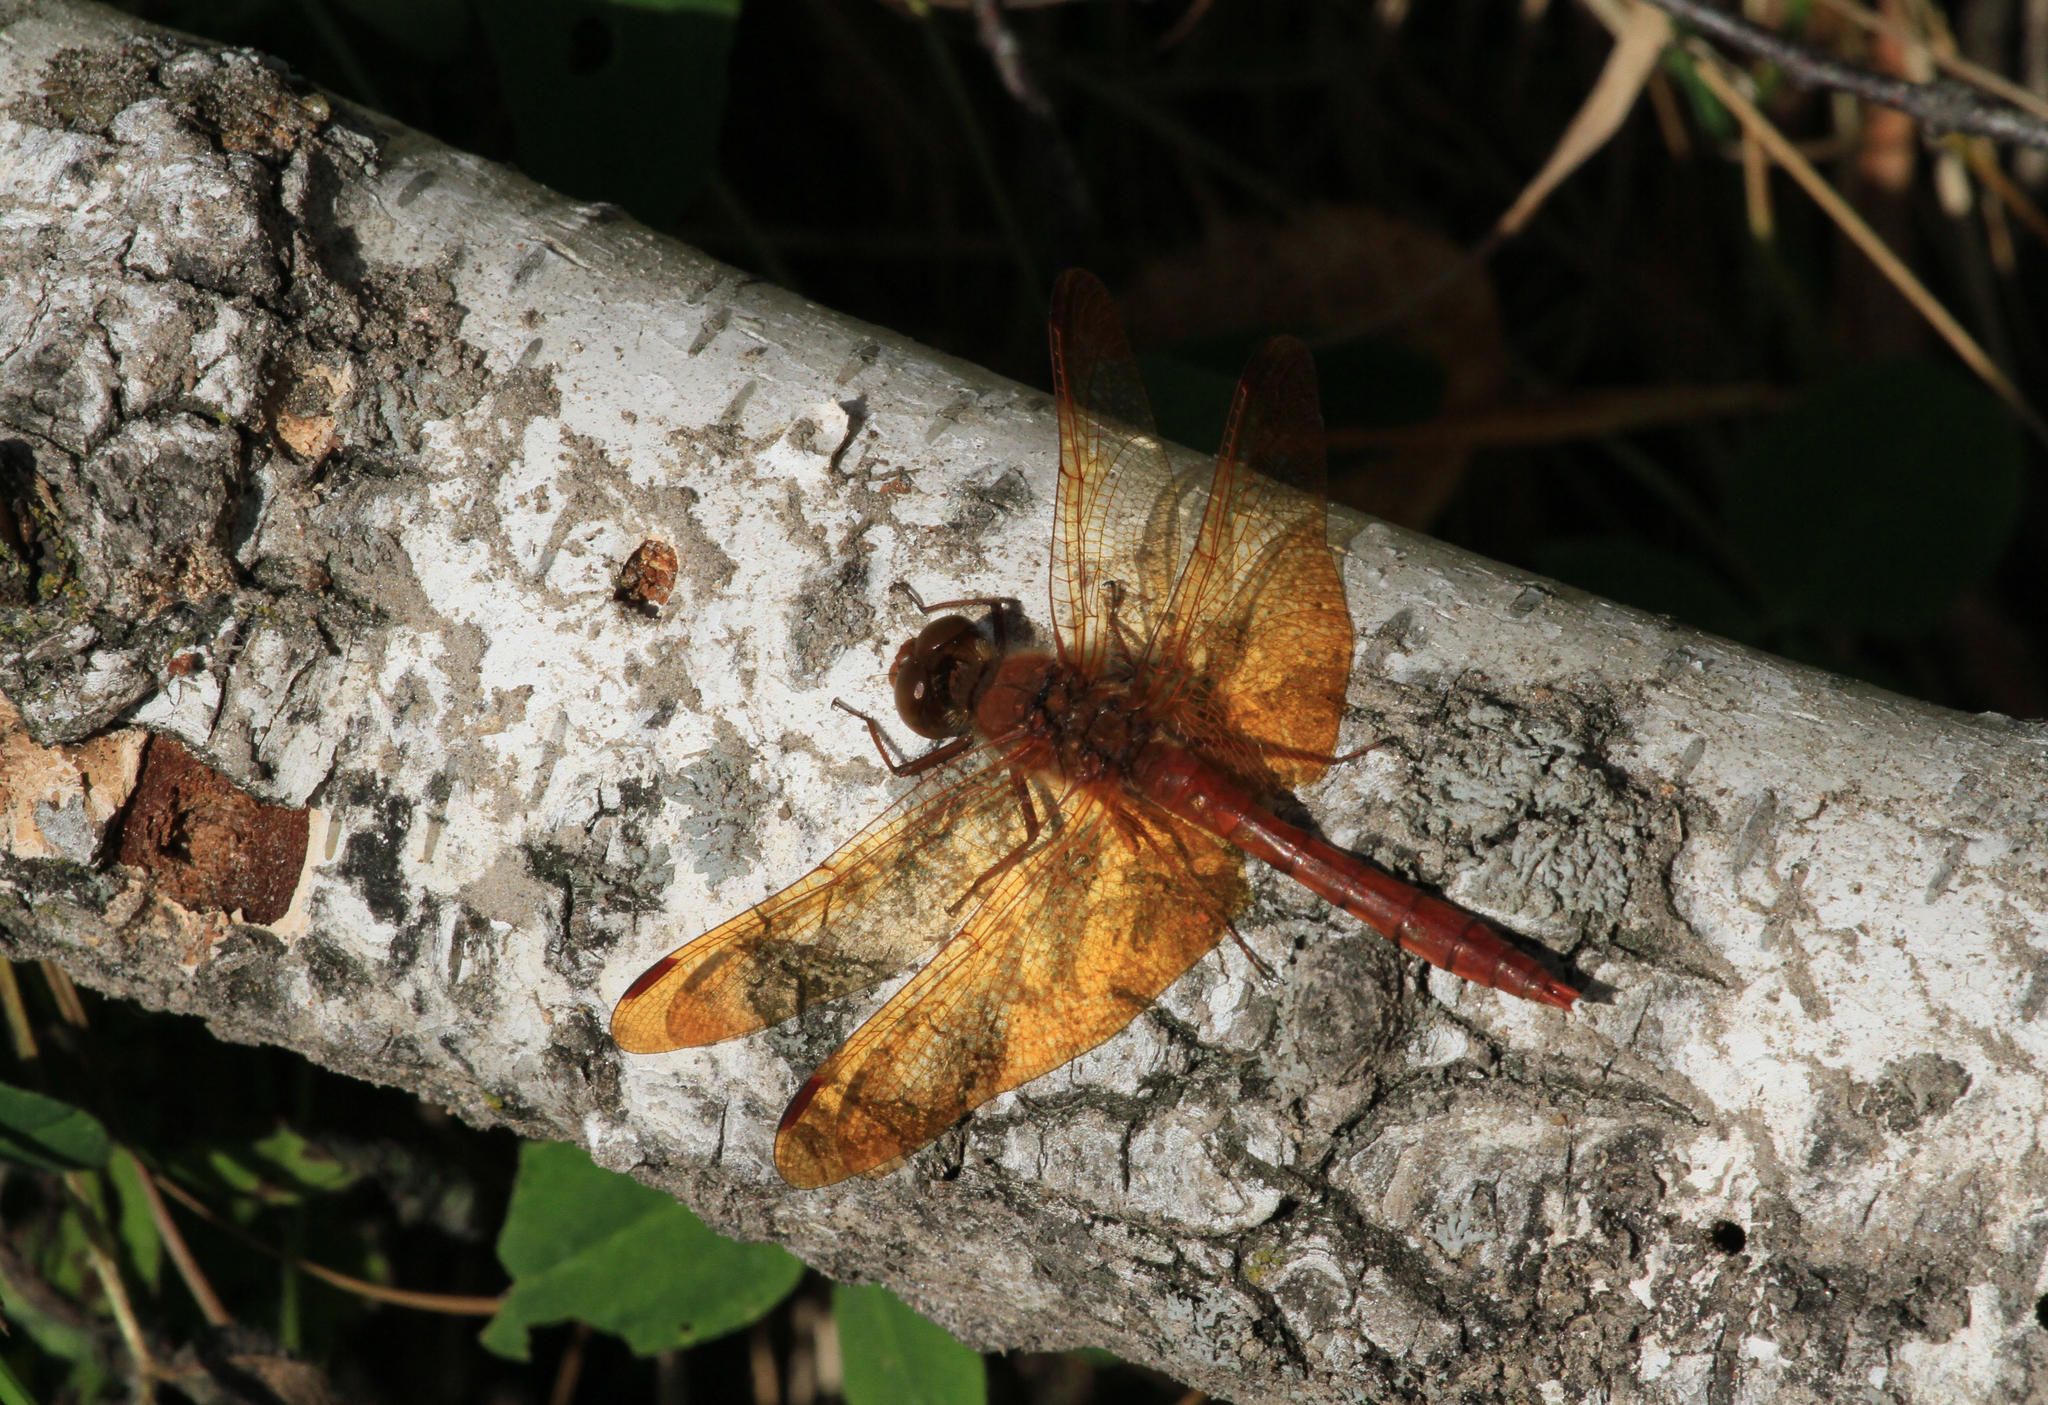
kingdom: Animalia
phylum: Arthropoda
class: Insecta
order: Odonata
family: Libellulidae
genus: Sympetrum
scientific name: Sympetrum croceolum
